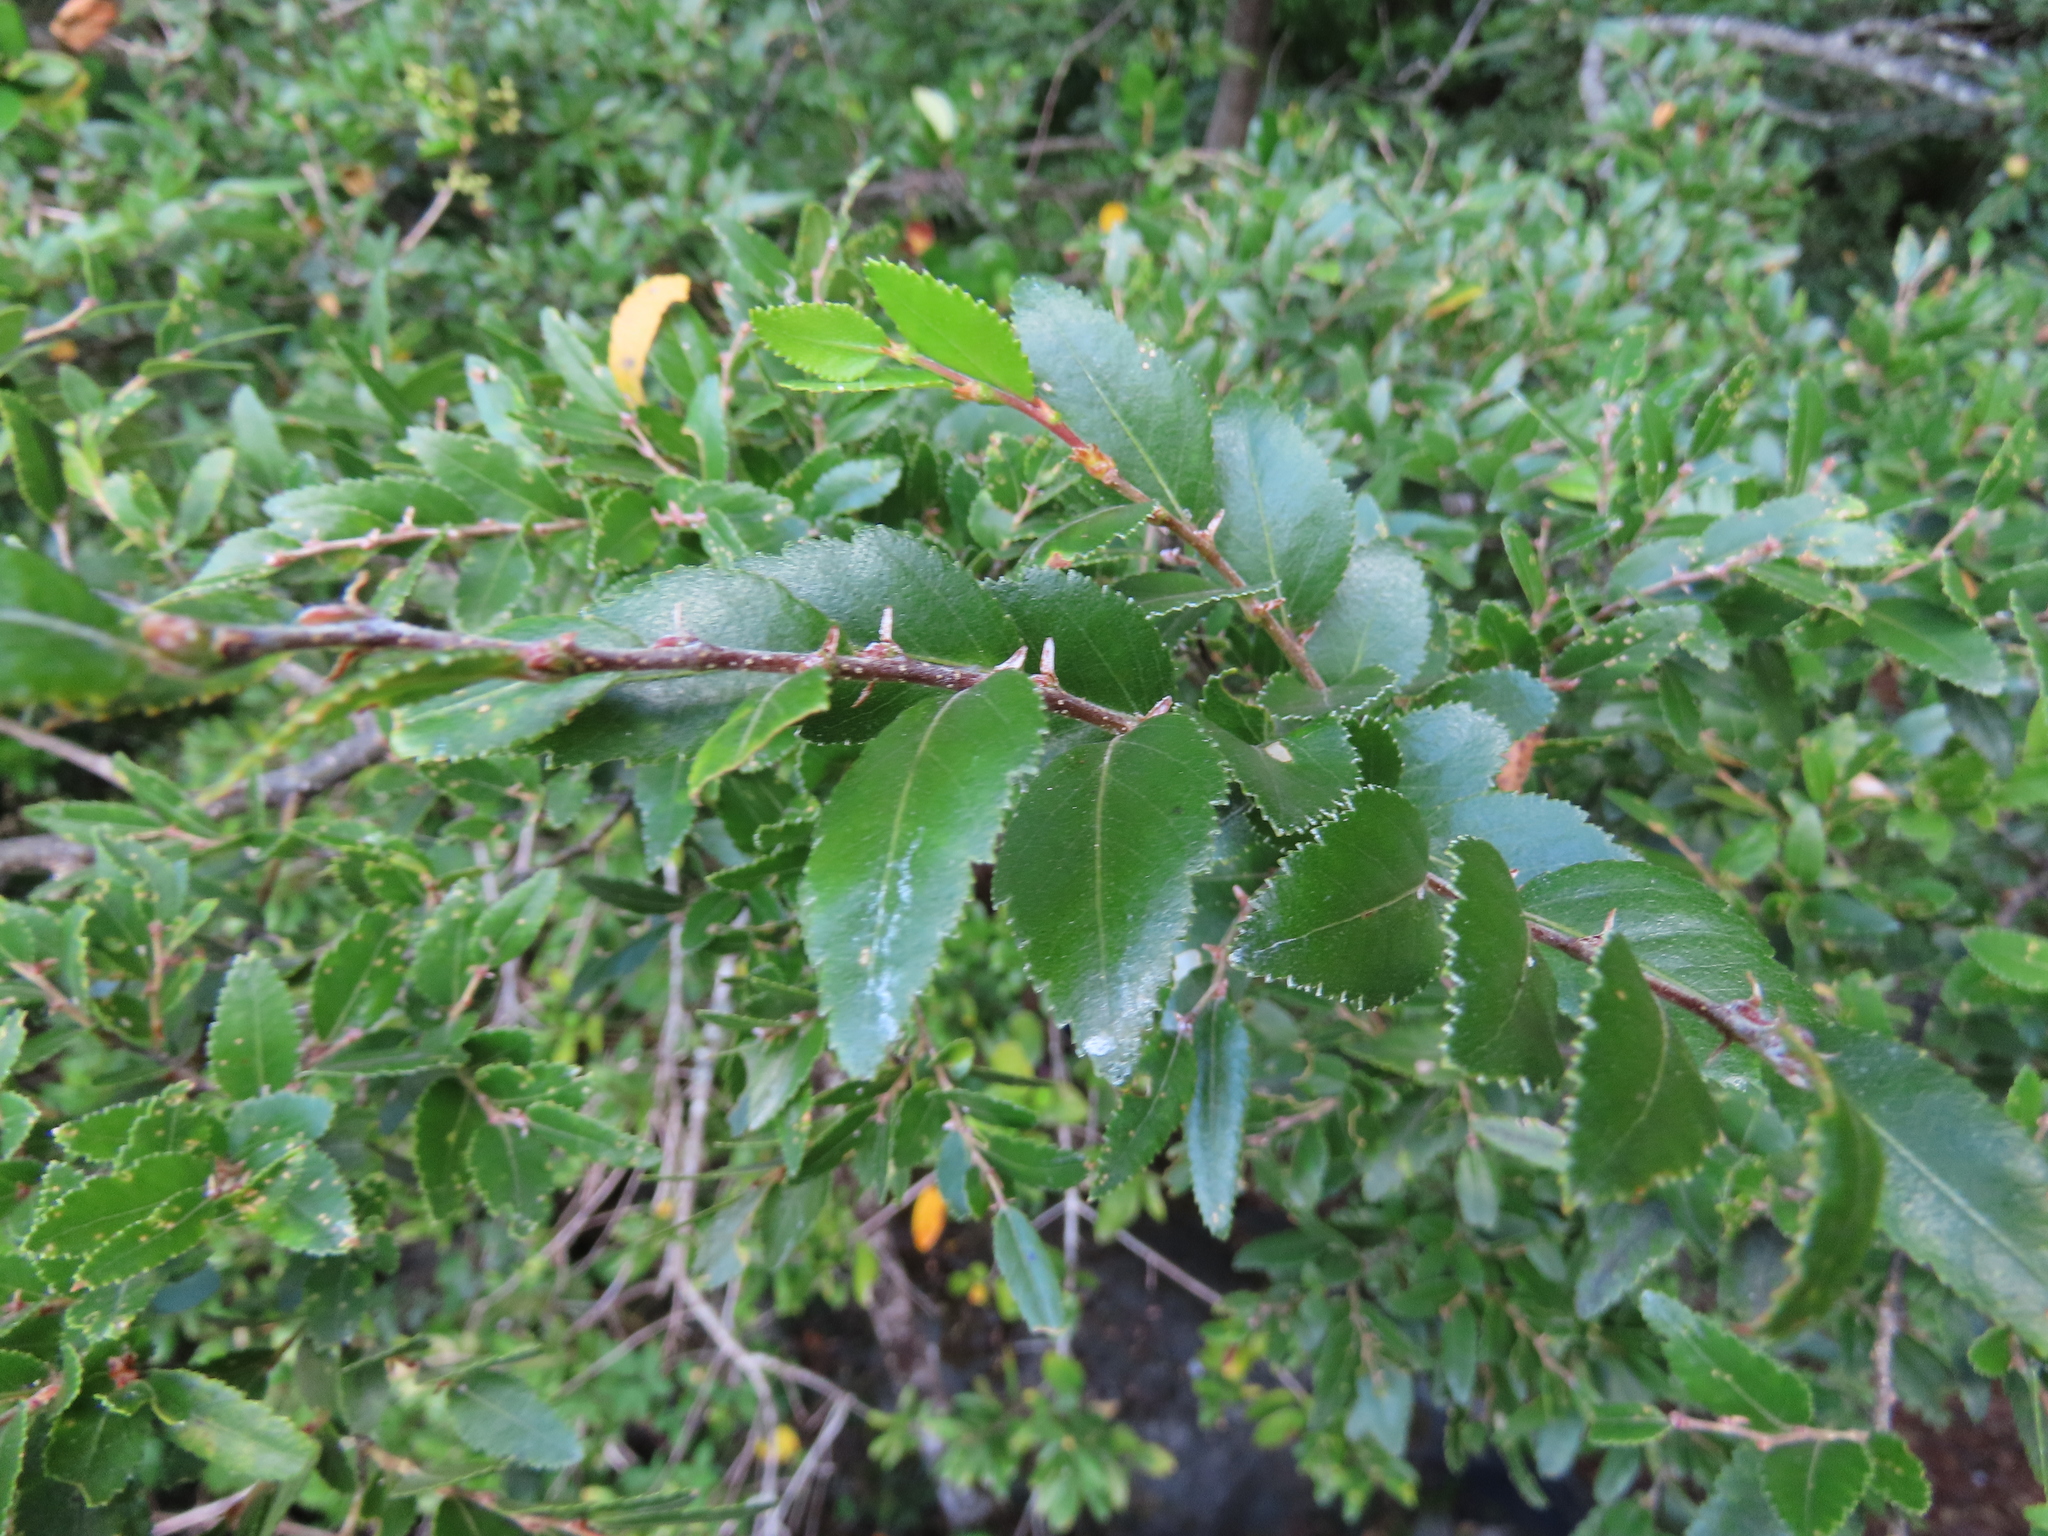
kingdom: Plantae
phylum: Tracheophyta
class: Magnoliopsida
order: Fagales
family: Nothofagaceae
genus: Nothofagus
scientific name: Nothofagus dombeyi
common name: Coigue
